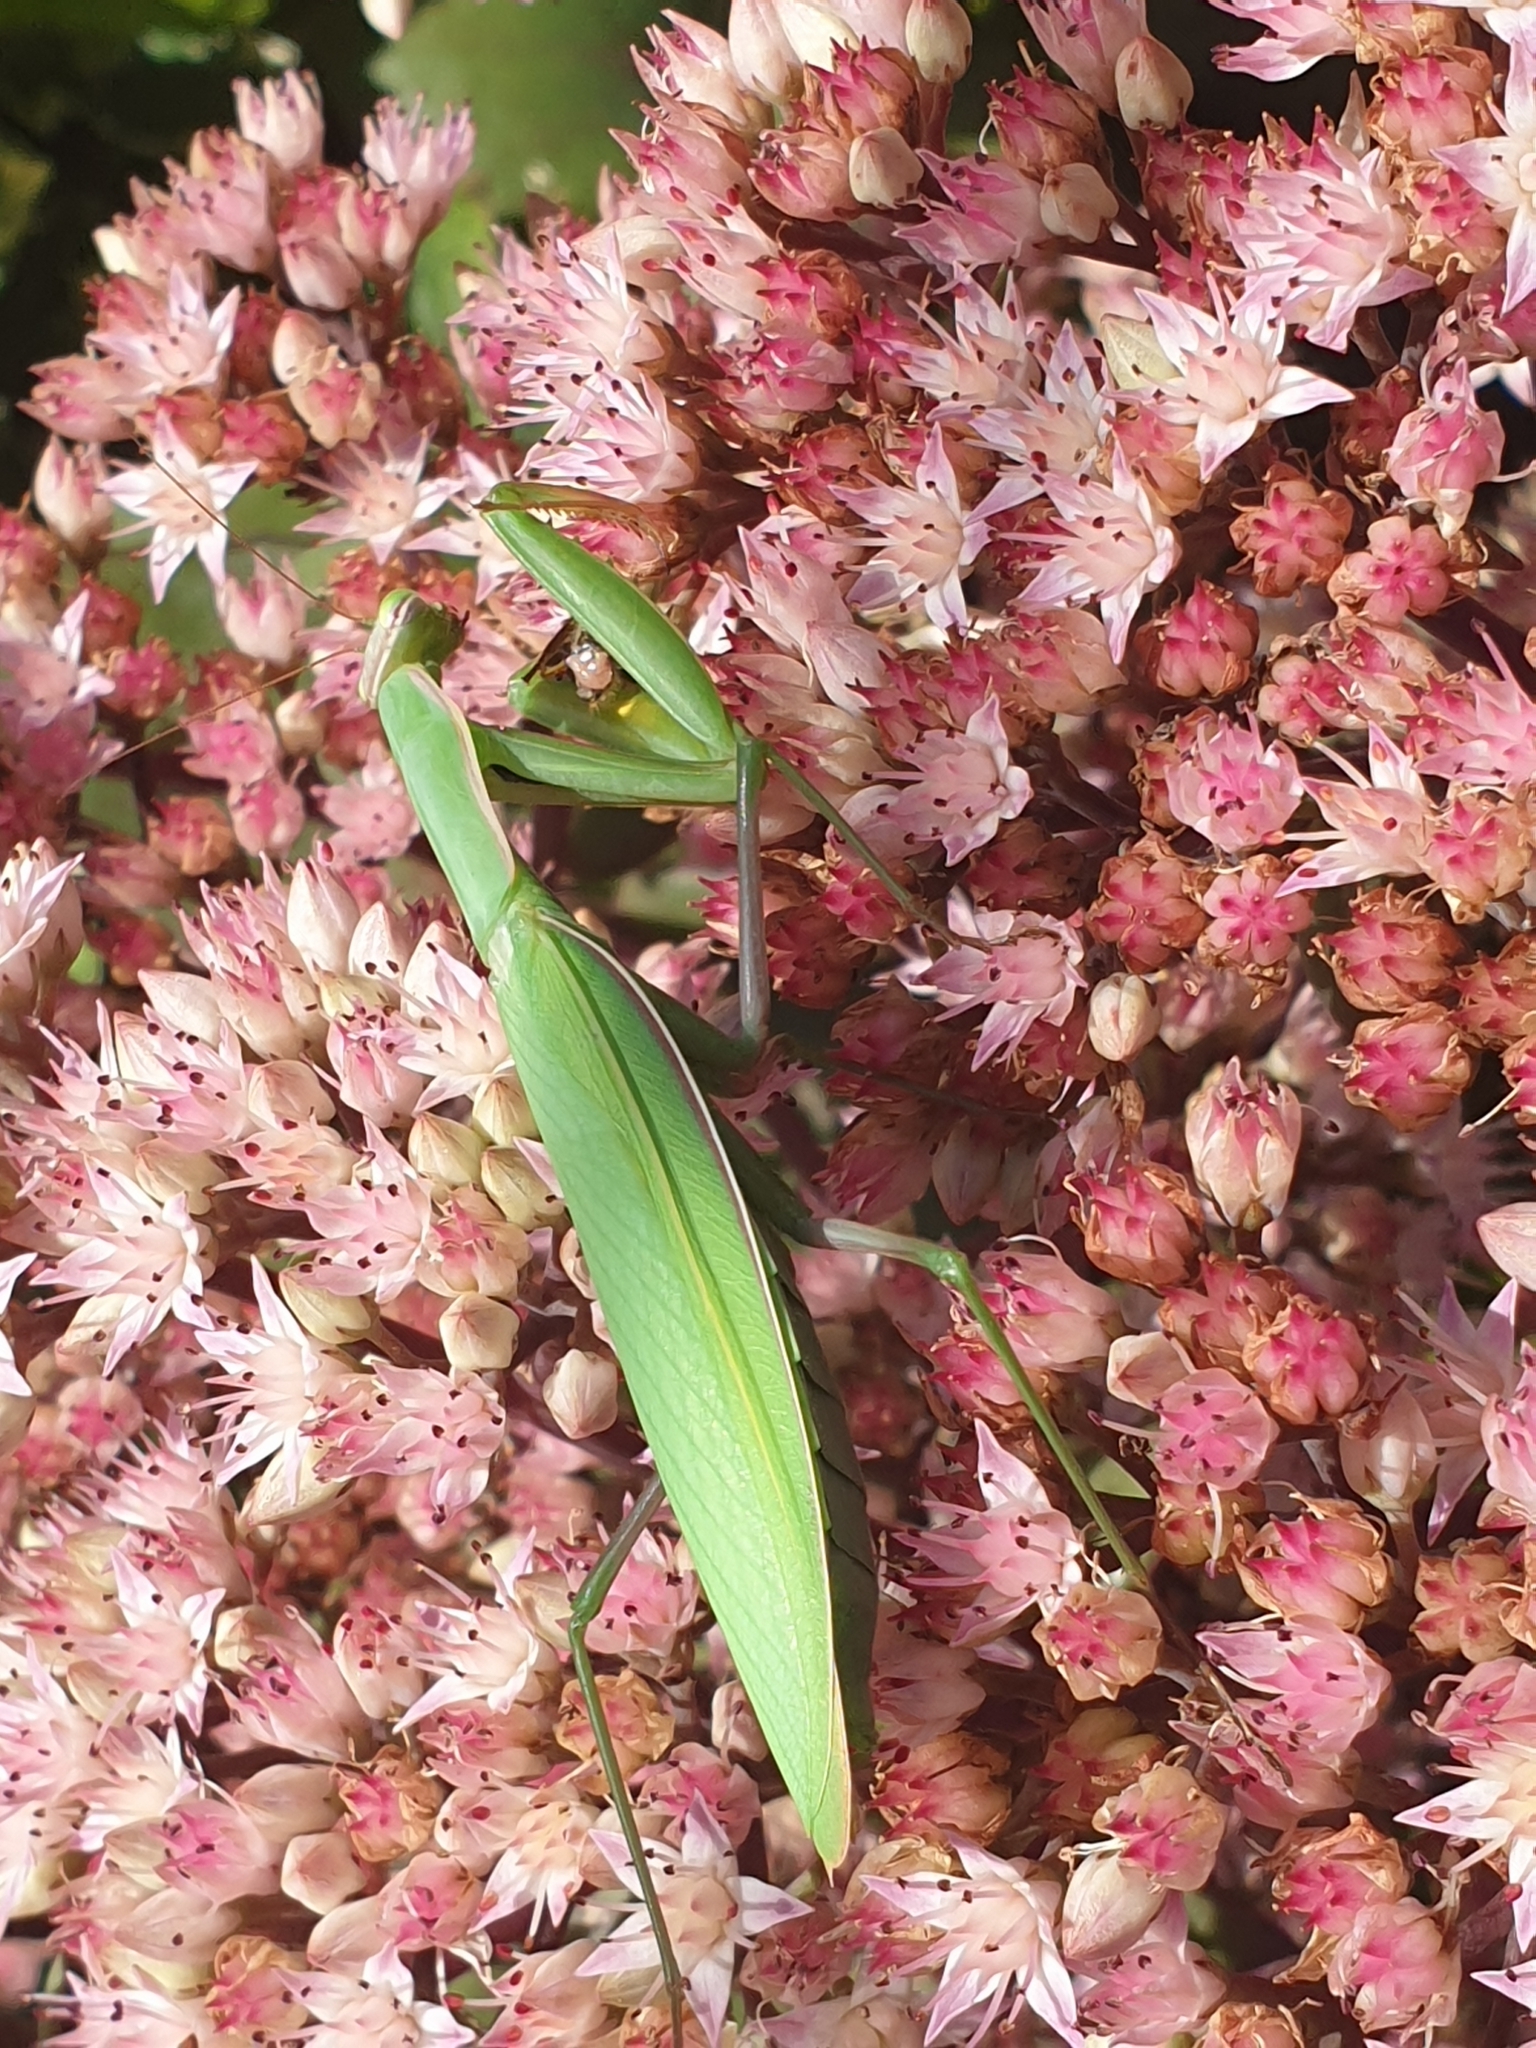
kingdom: Animalia
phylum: Arthropoda
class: Insecta
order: Mantodea
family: Mantidae
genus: Mantis
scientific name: Mantis religiosa
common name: Praying mantis
